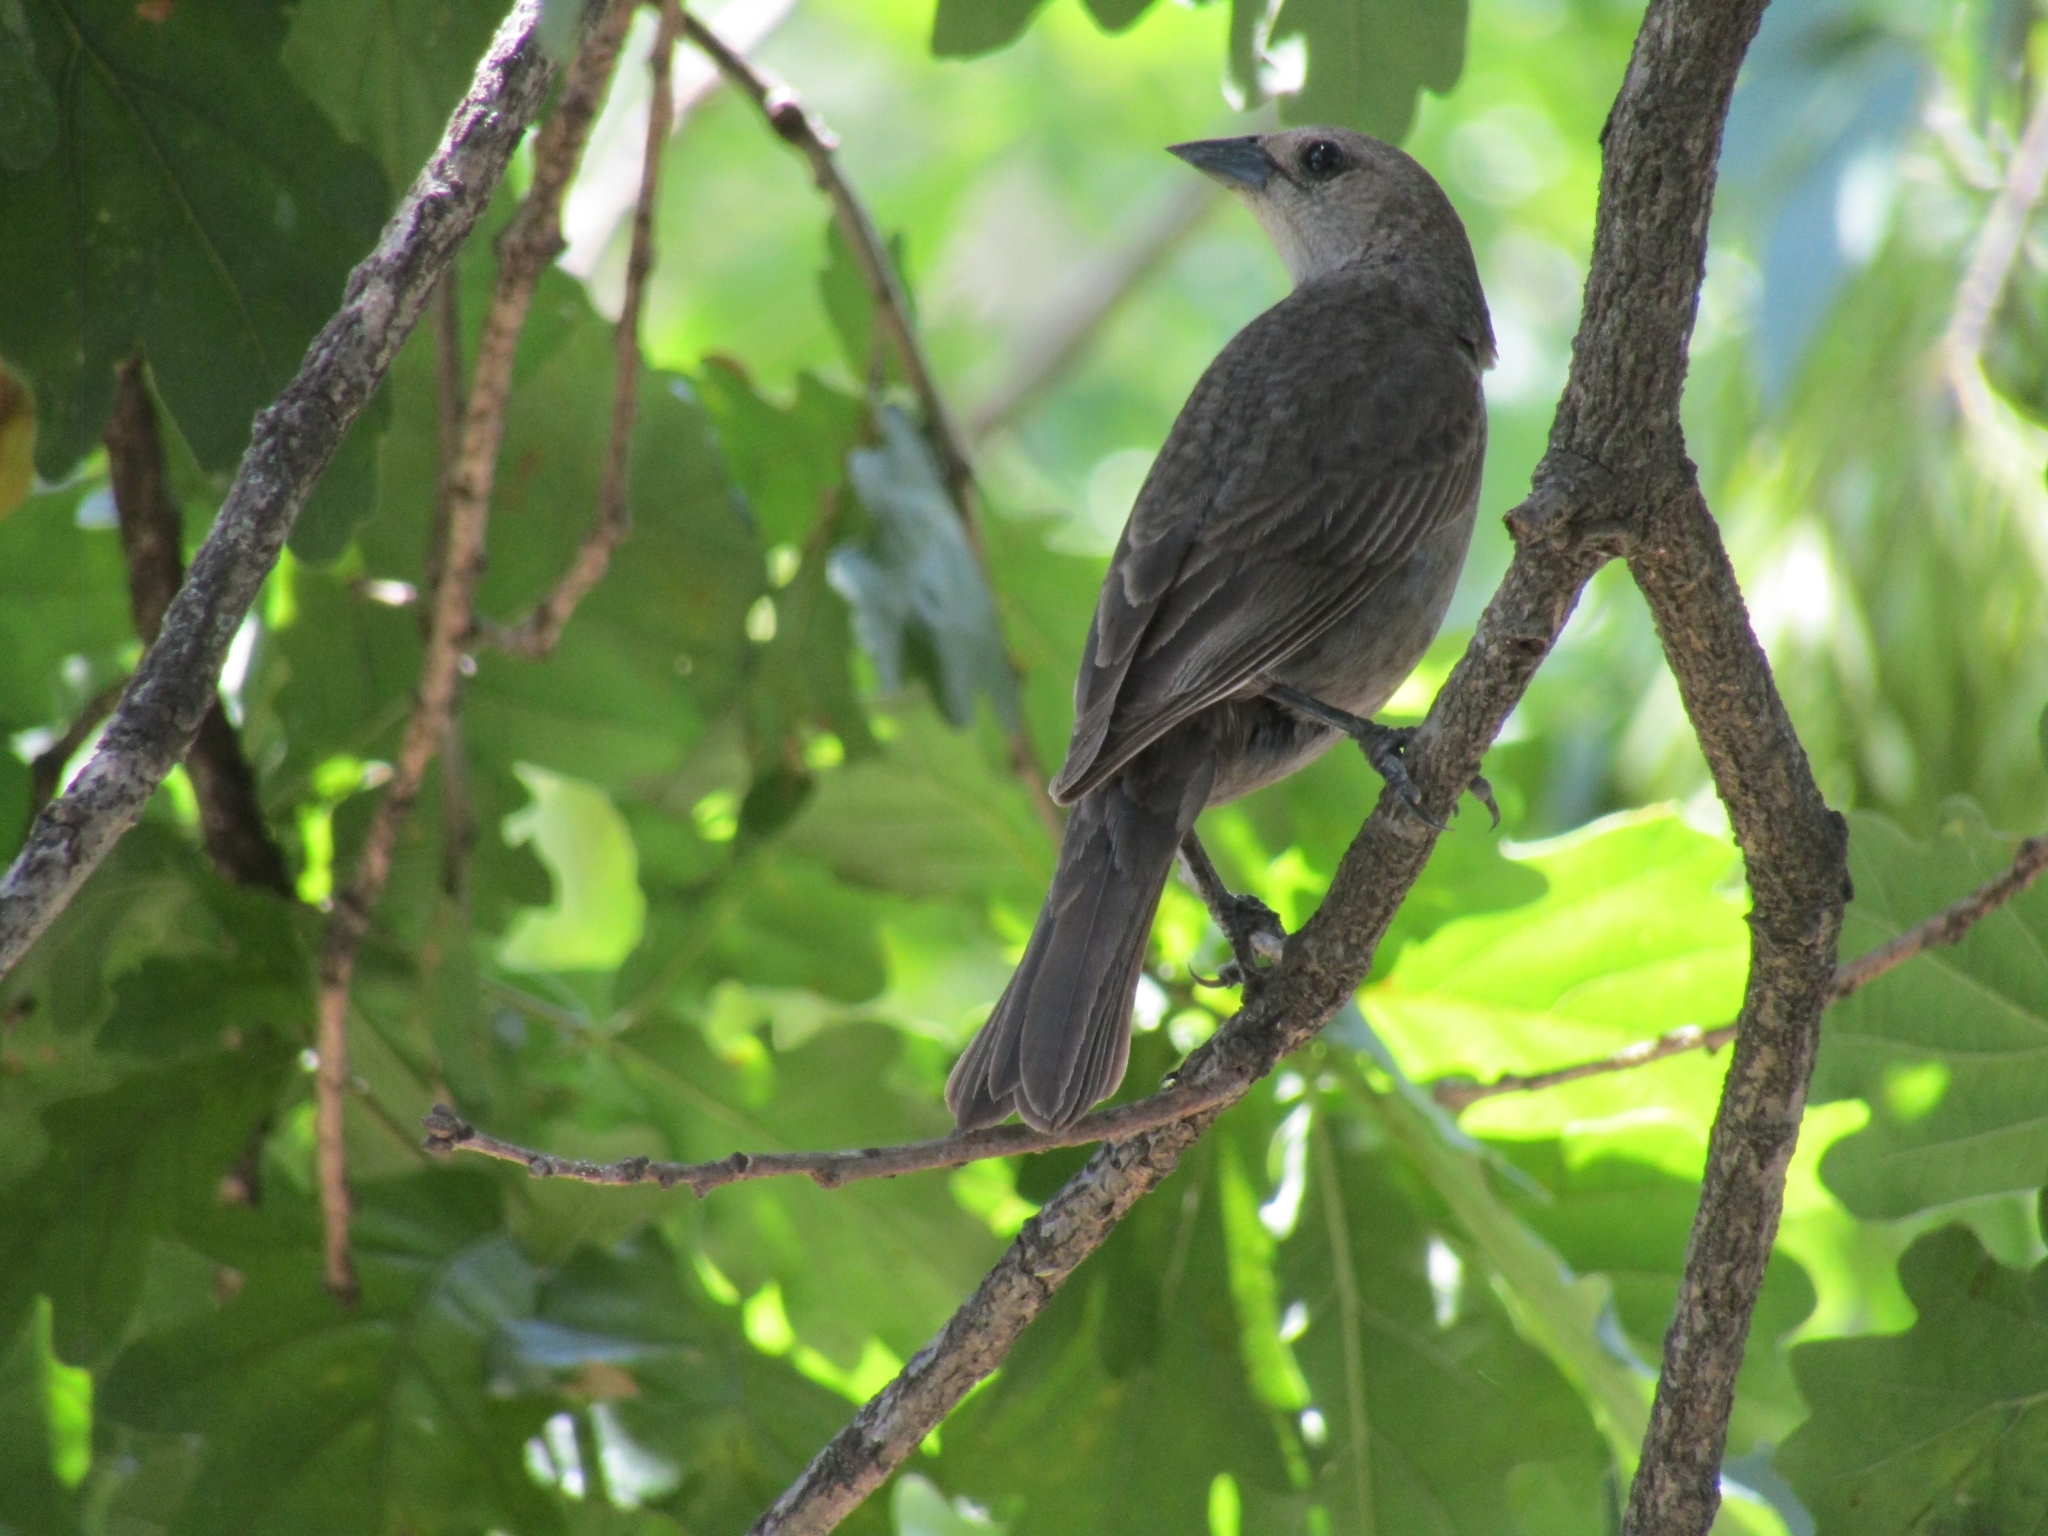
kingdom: Animalia
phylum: Chordata
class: Aves
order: Passeriformes
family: Icteridae
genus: Molothrus
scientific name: Molothrus bonariensis
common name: Shiny cowbird
